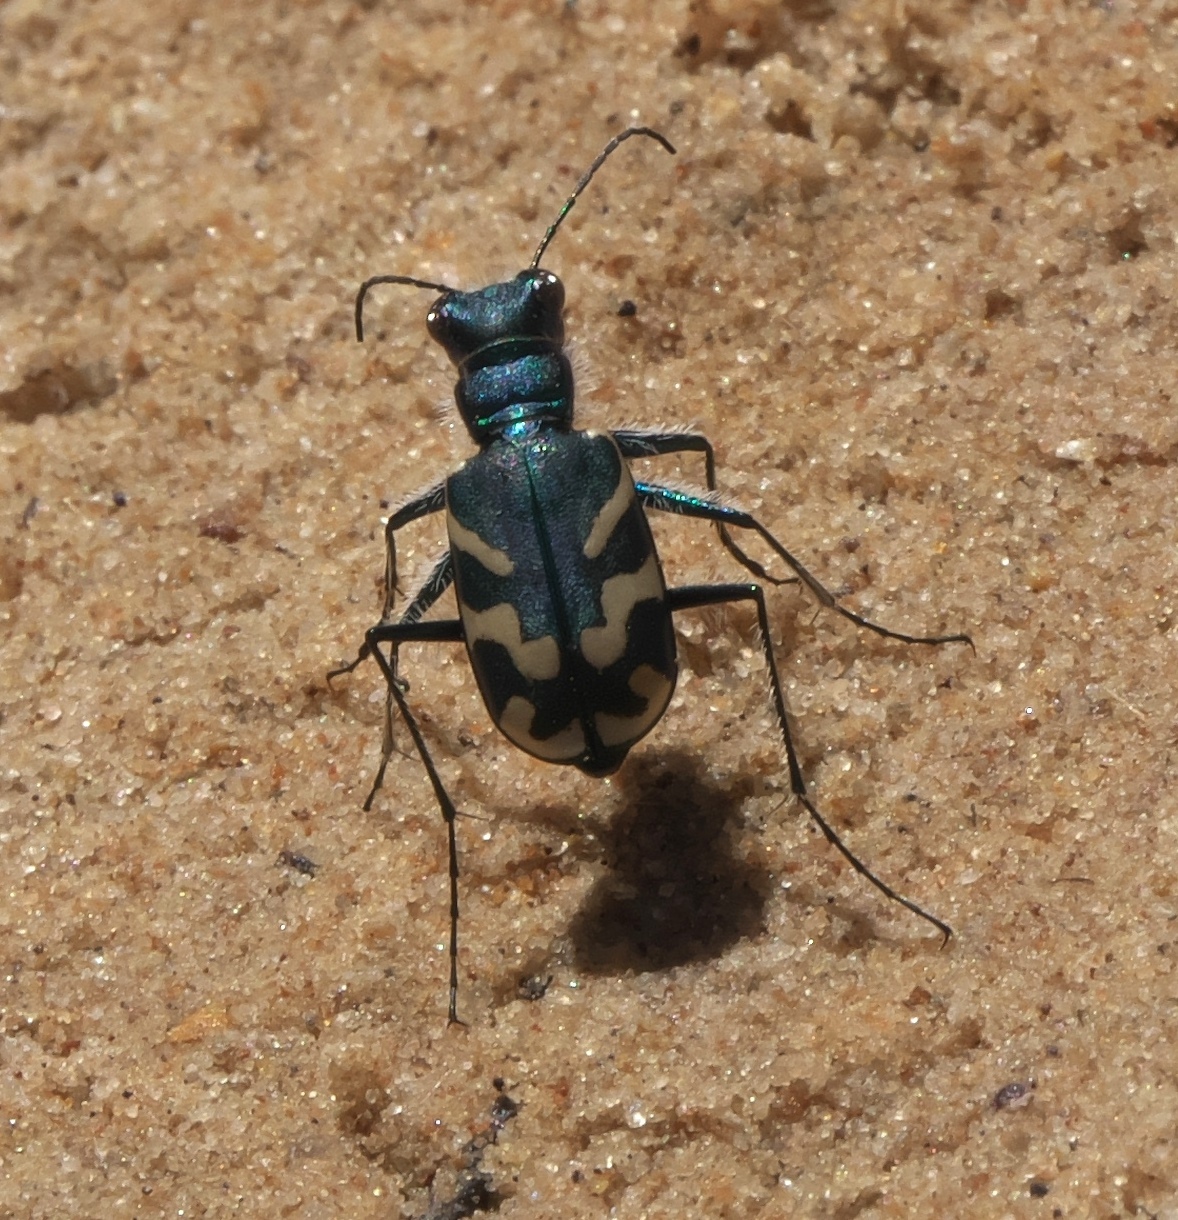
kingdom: Animalia
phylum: Arthropoda
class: Insecta
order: Coleoptera
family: Carabidae
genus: Cicindela
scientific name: Cicindela tranquebarica
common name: Oblique-lined tiger beetle
